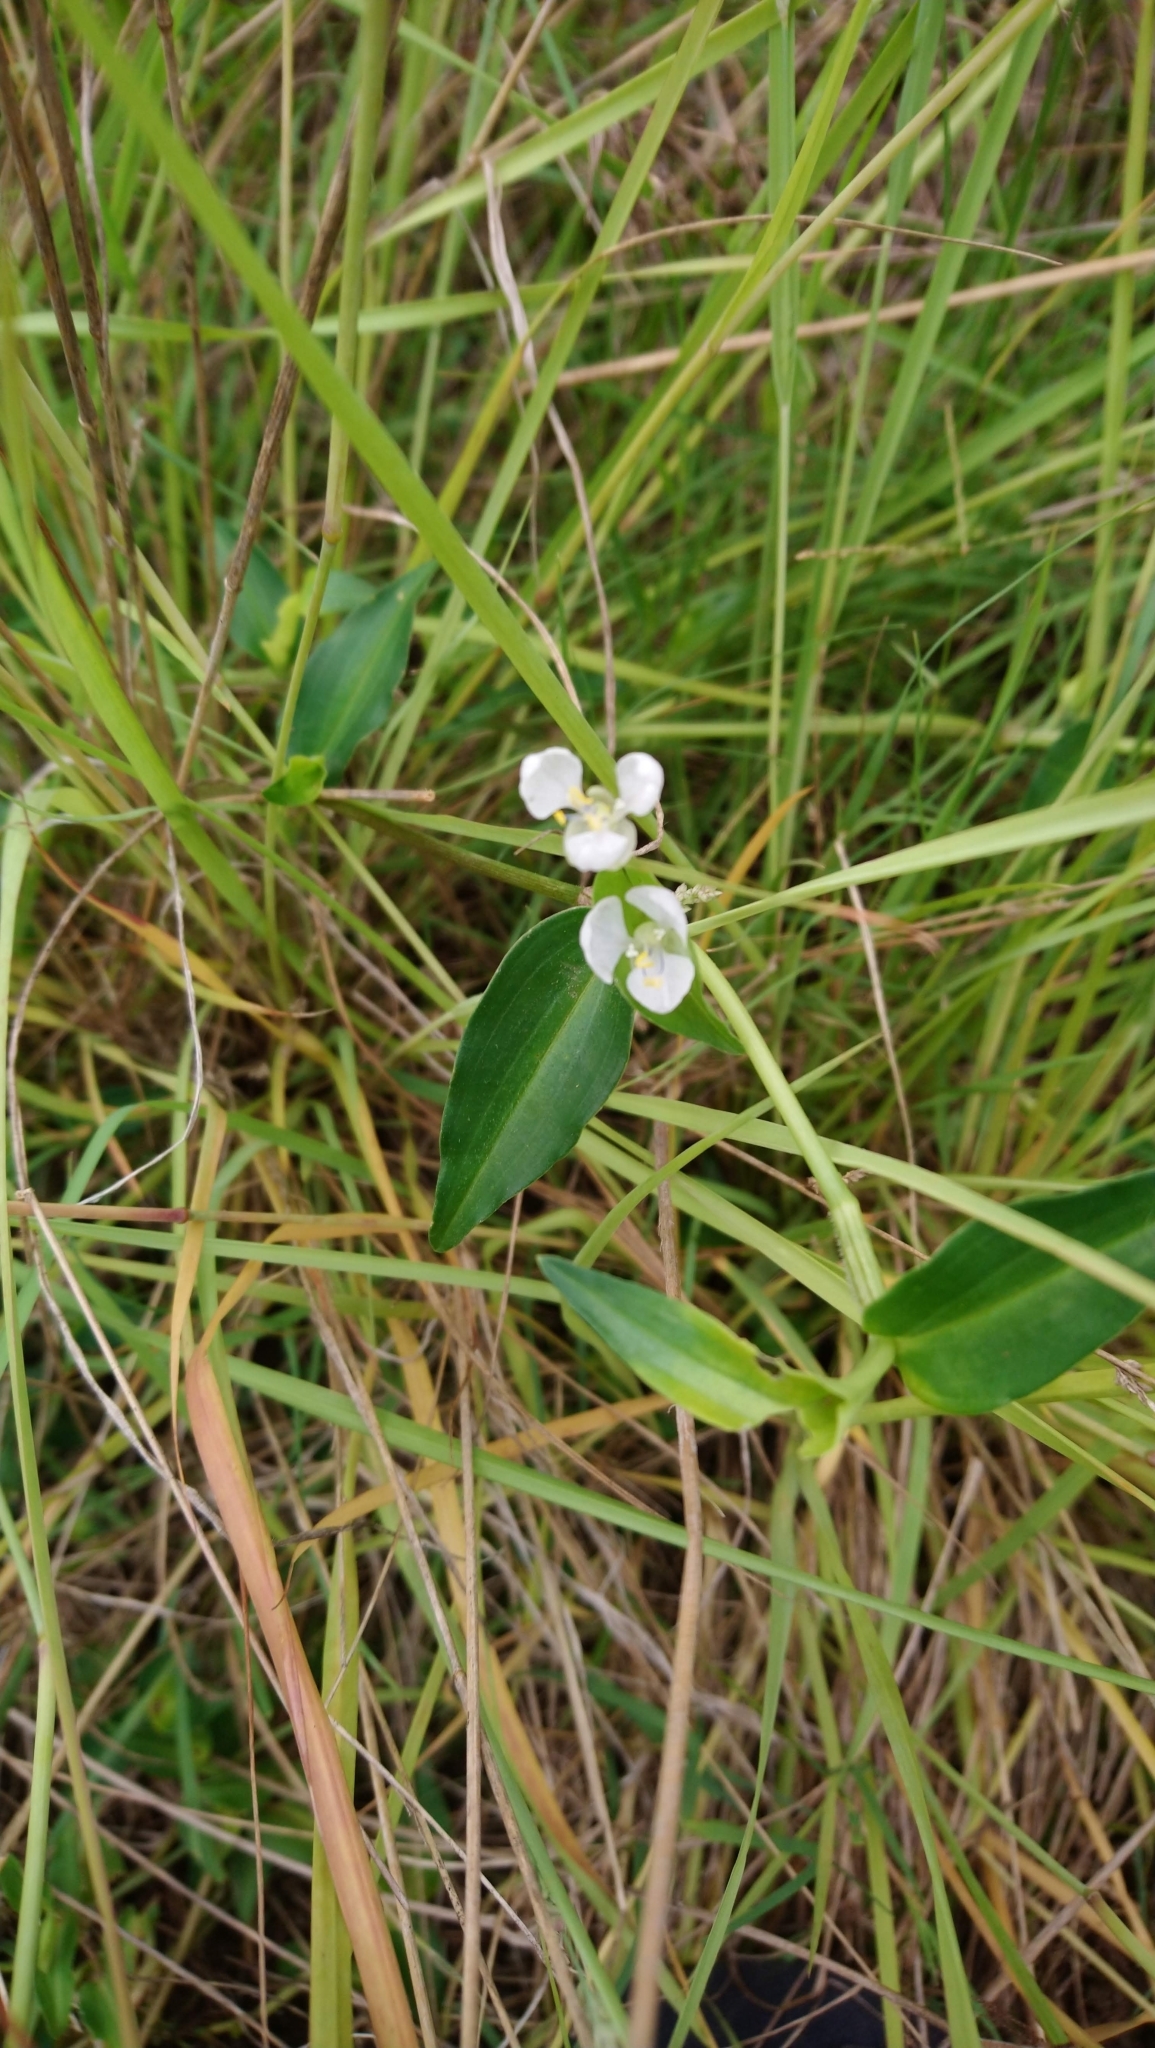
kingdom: Plantae
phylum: Tracheophyta
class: Liliopsida
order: Commelinales
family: Commelinaceae
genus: Aneilema
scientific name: Aneilema biflorum
